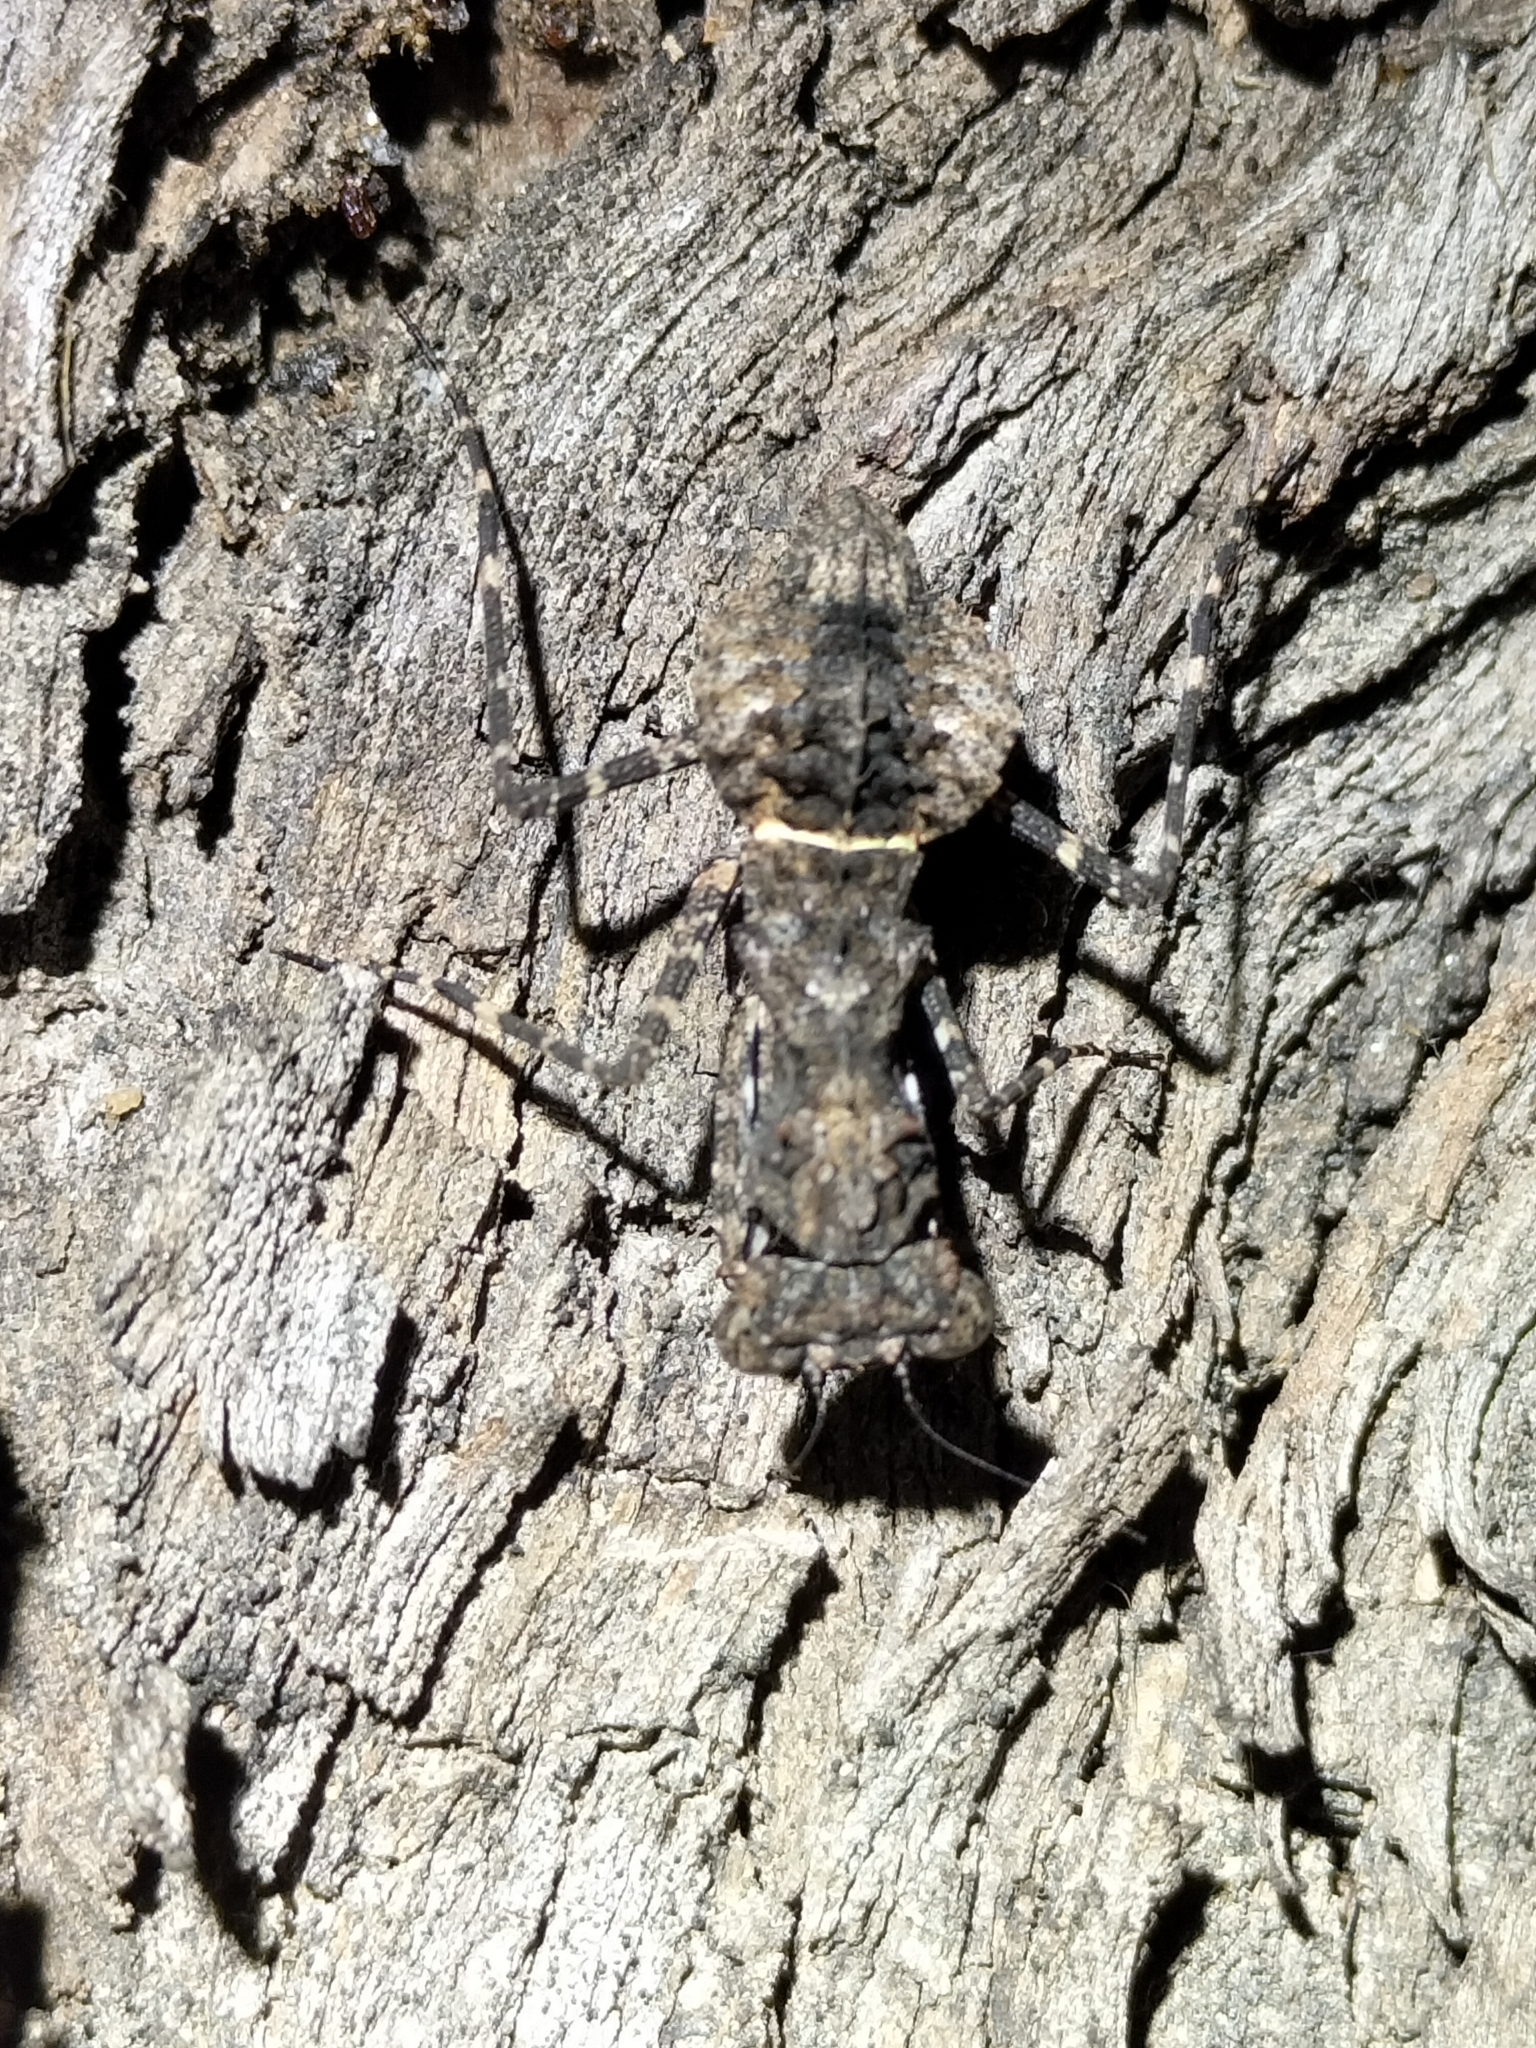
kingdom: Animalia
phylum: Arthropoda
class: Insecta
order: Mantodea
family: Nanomantidae
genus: Paraoxypilus
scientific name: Paraoxypilus verreauxii
